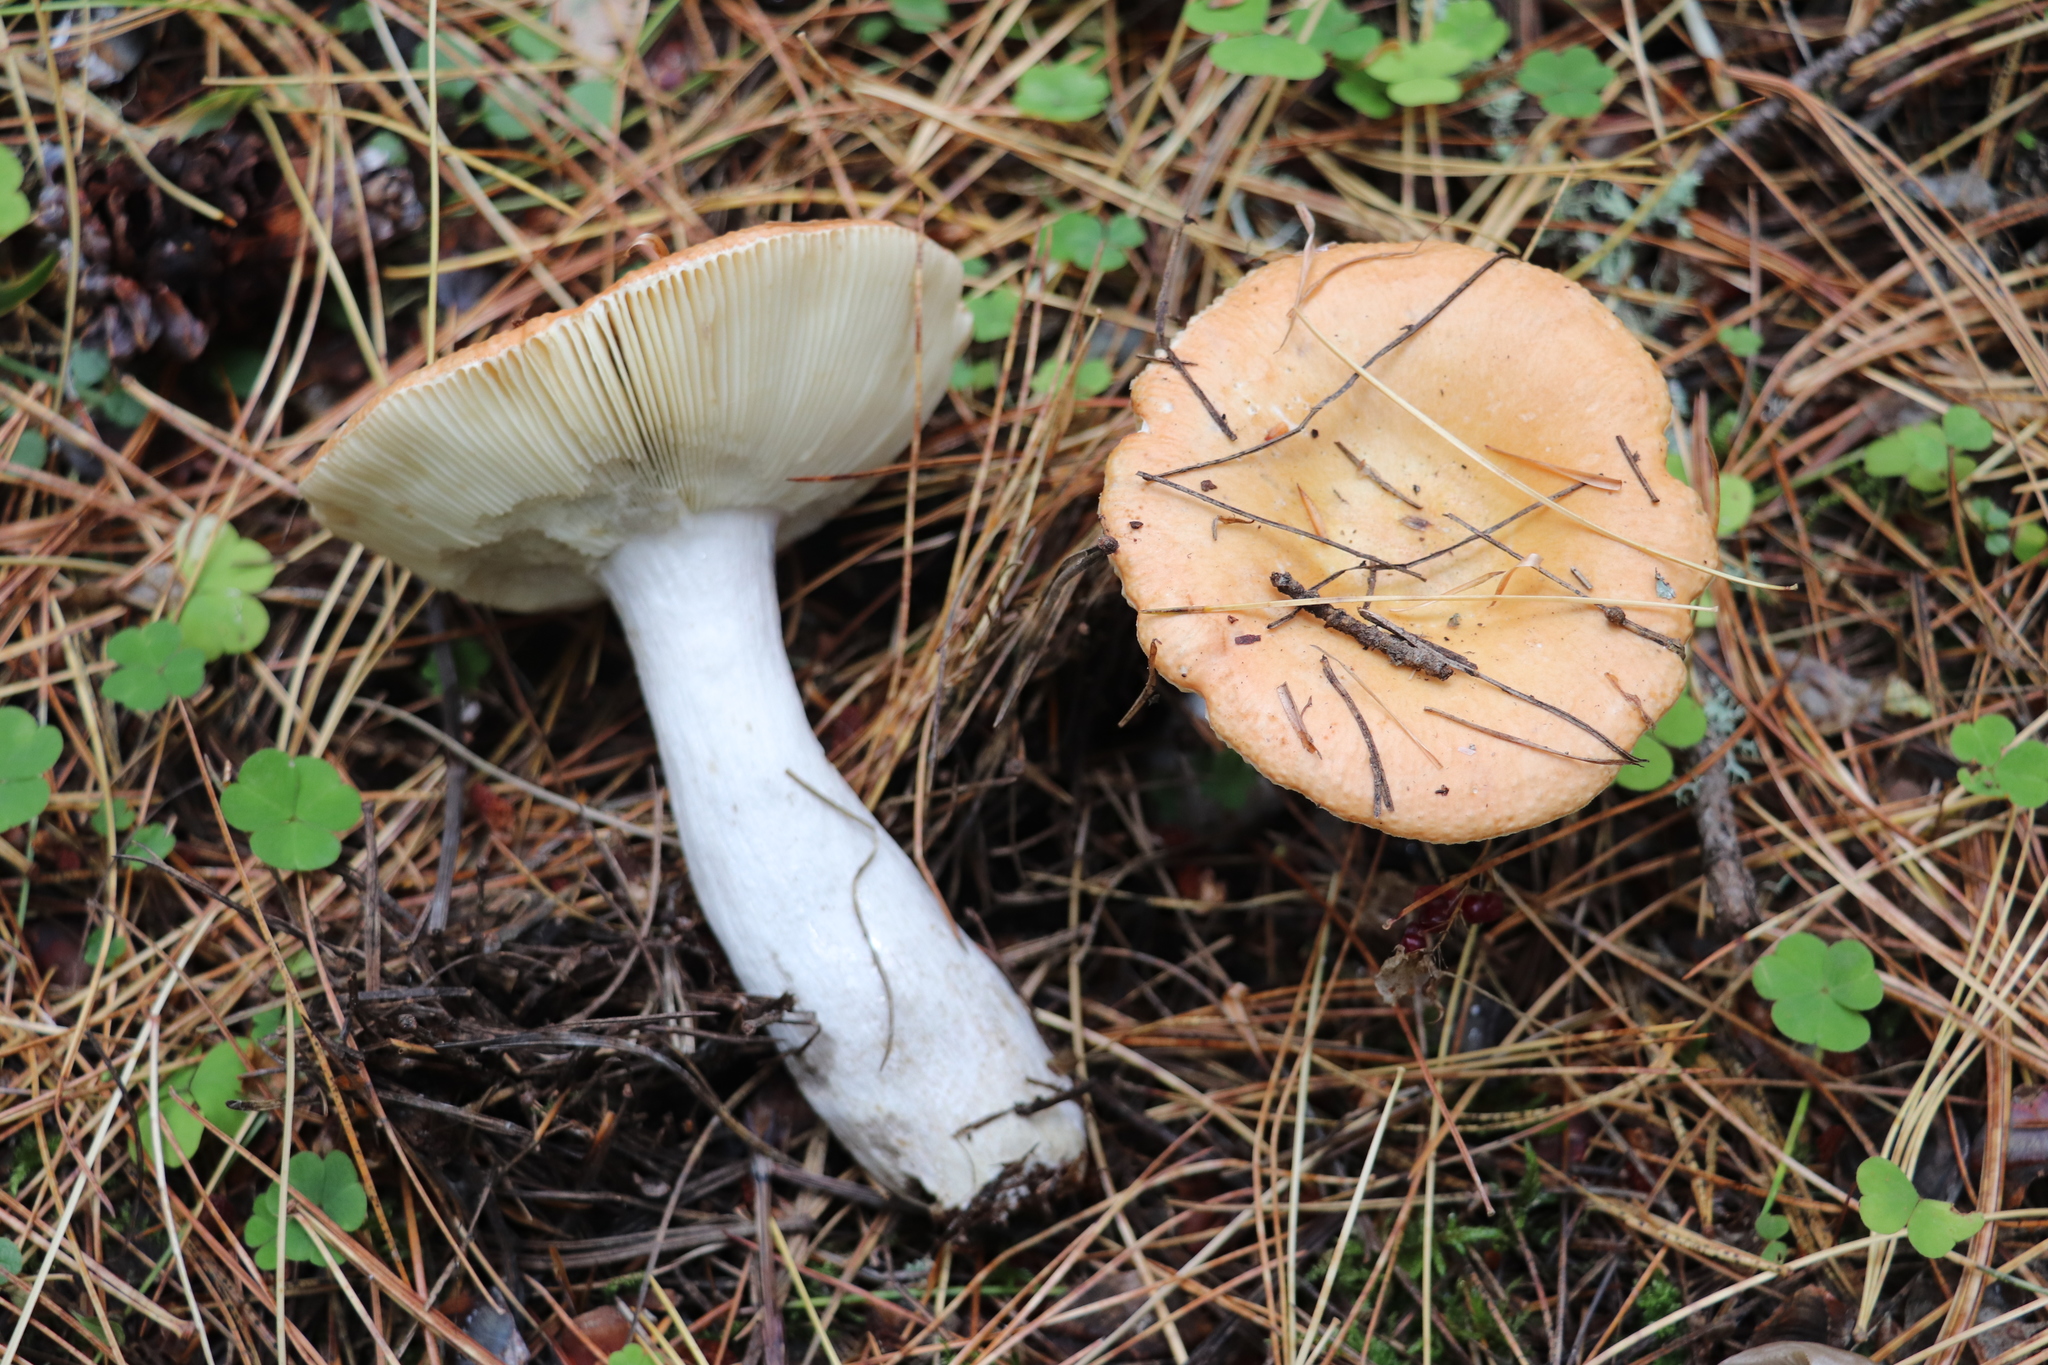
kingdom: Fungi
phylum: Basidiomycota
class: Agaricomycetes
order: Russulales
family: Russulaceae
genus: Russula
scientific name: Russula decolorans
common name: Copper brittlegill
